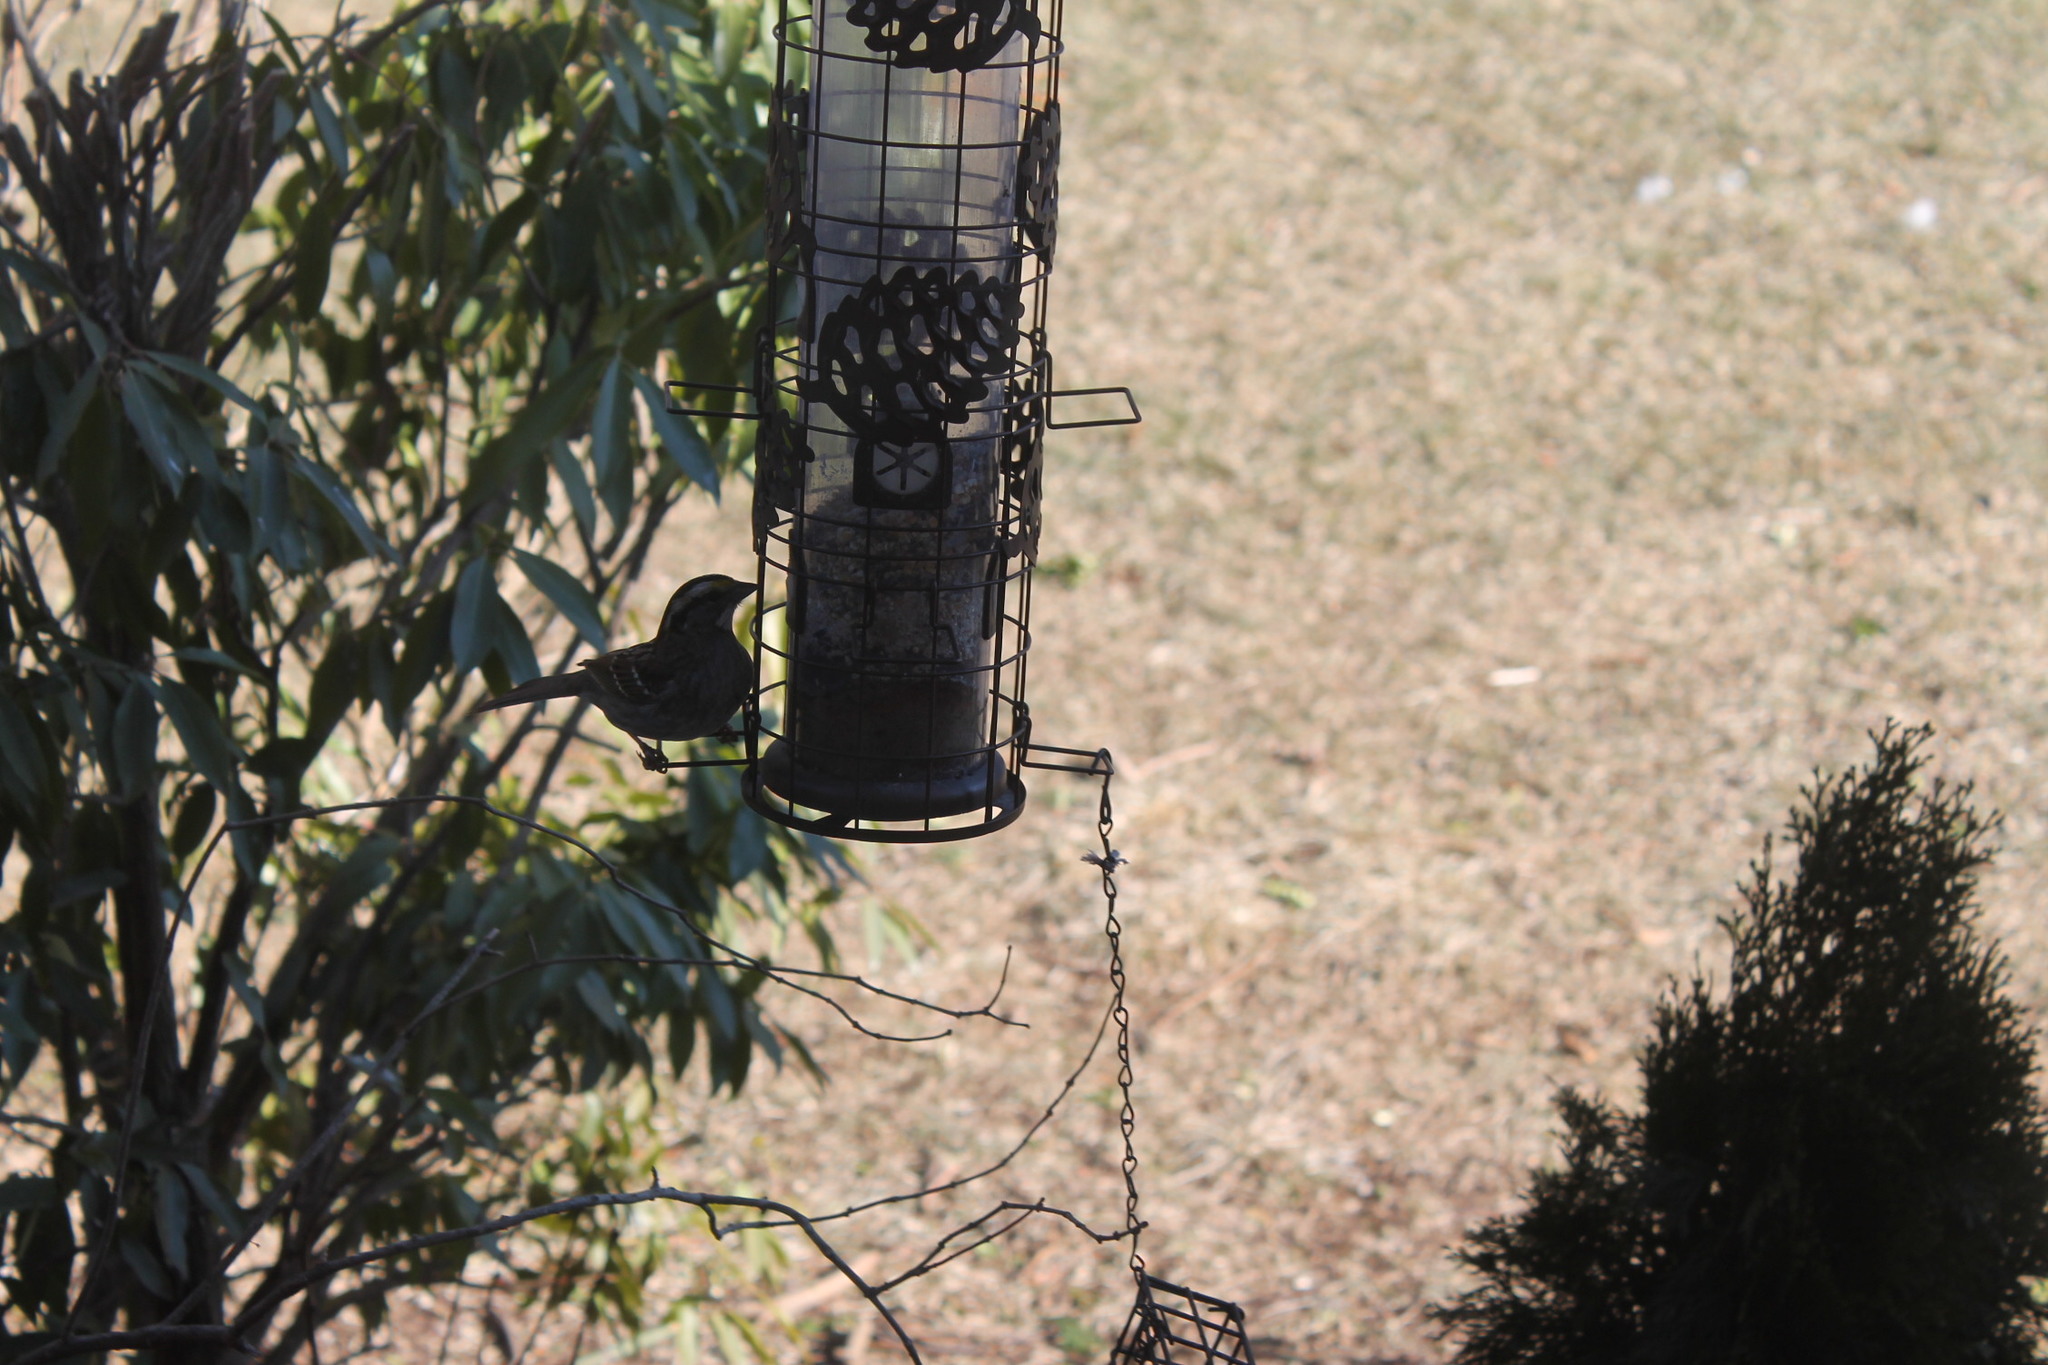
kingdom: Animalia
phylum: Chordata
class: Aves
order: Passeriformes
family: Passerellidae
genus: Zonotrichia
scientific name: Zonotrichia albicollis
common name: White-throated sparrow
